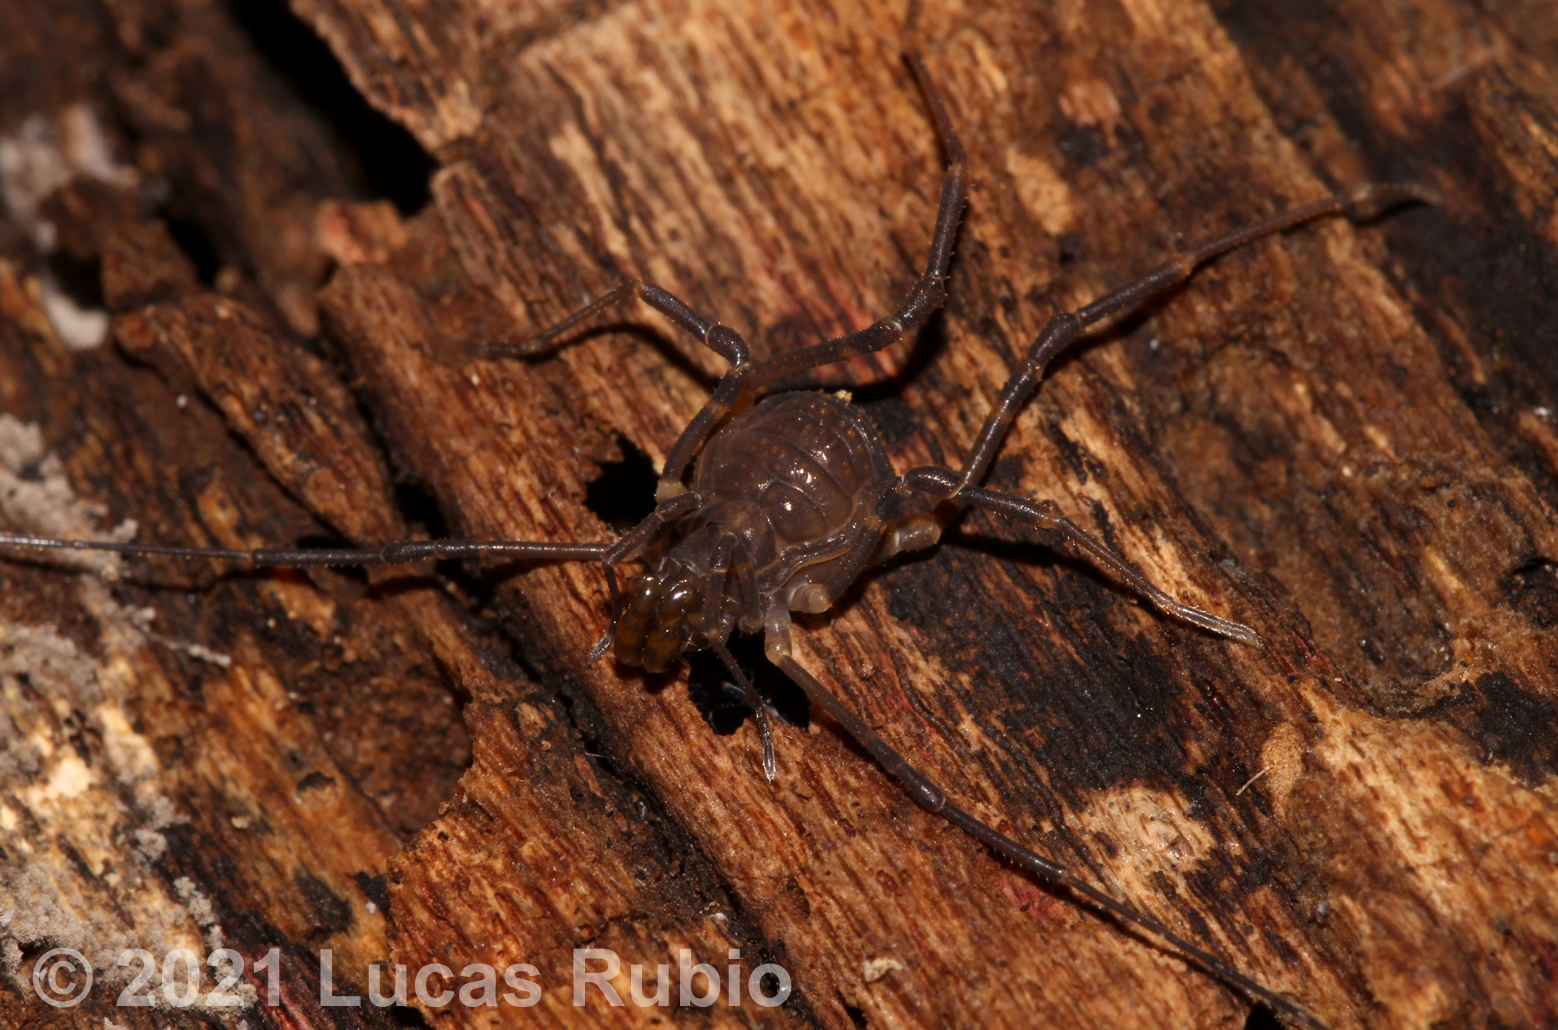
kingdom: Animalia
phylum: Arthropoda
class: Arachnida
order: Opiliones
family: Gonyleptidae
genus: Opisthoplatus
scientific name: Opisthoplatus prospicuus
